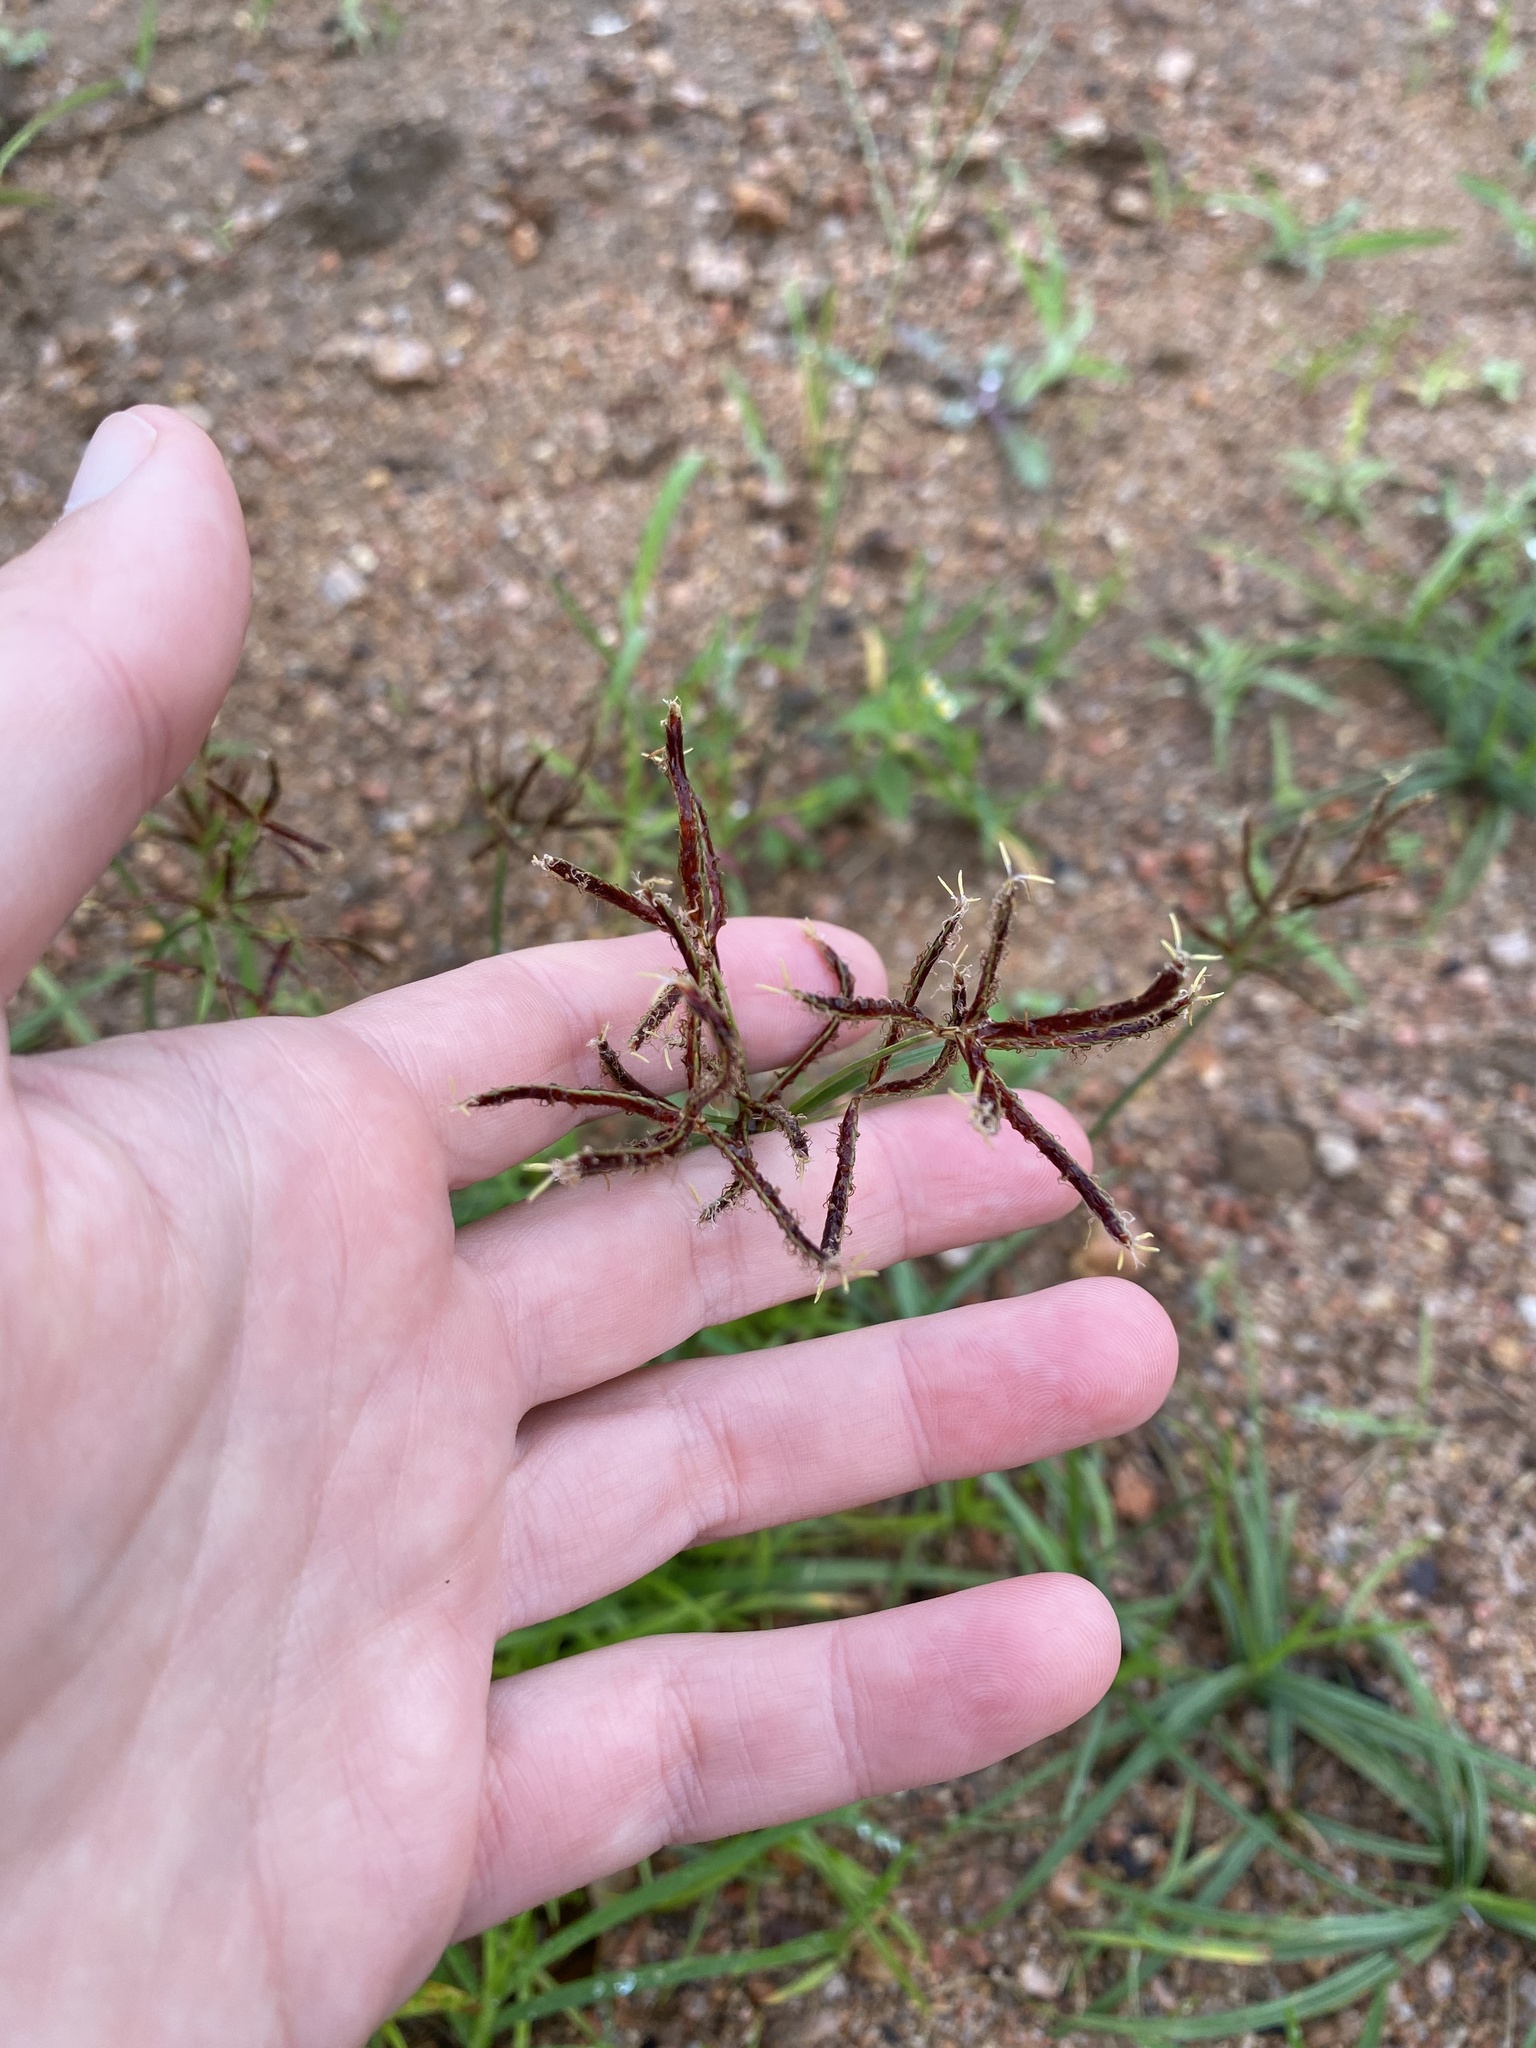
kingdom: Plantae
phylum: Tracheophyta
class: Liliopsida
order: Poales
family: Cyperaceae
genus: Cyperus
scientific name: Cyperus rotundus
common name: Nutgrass
